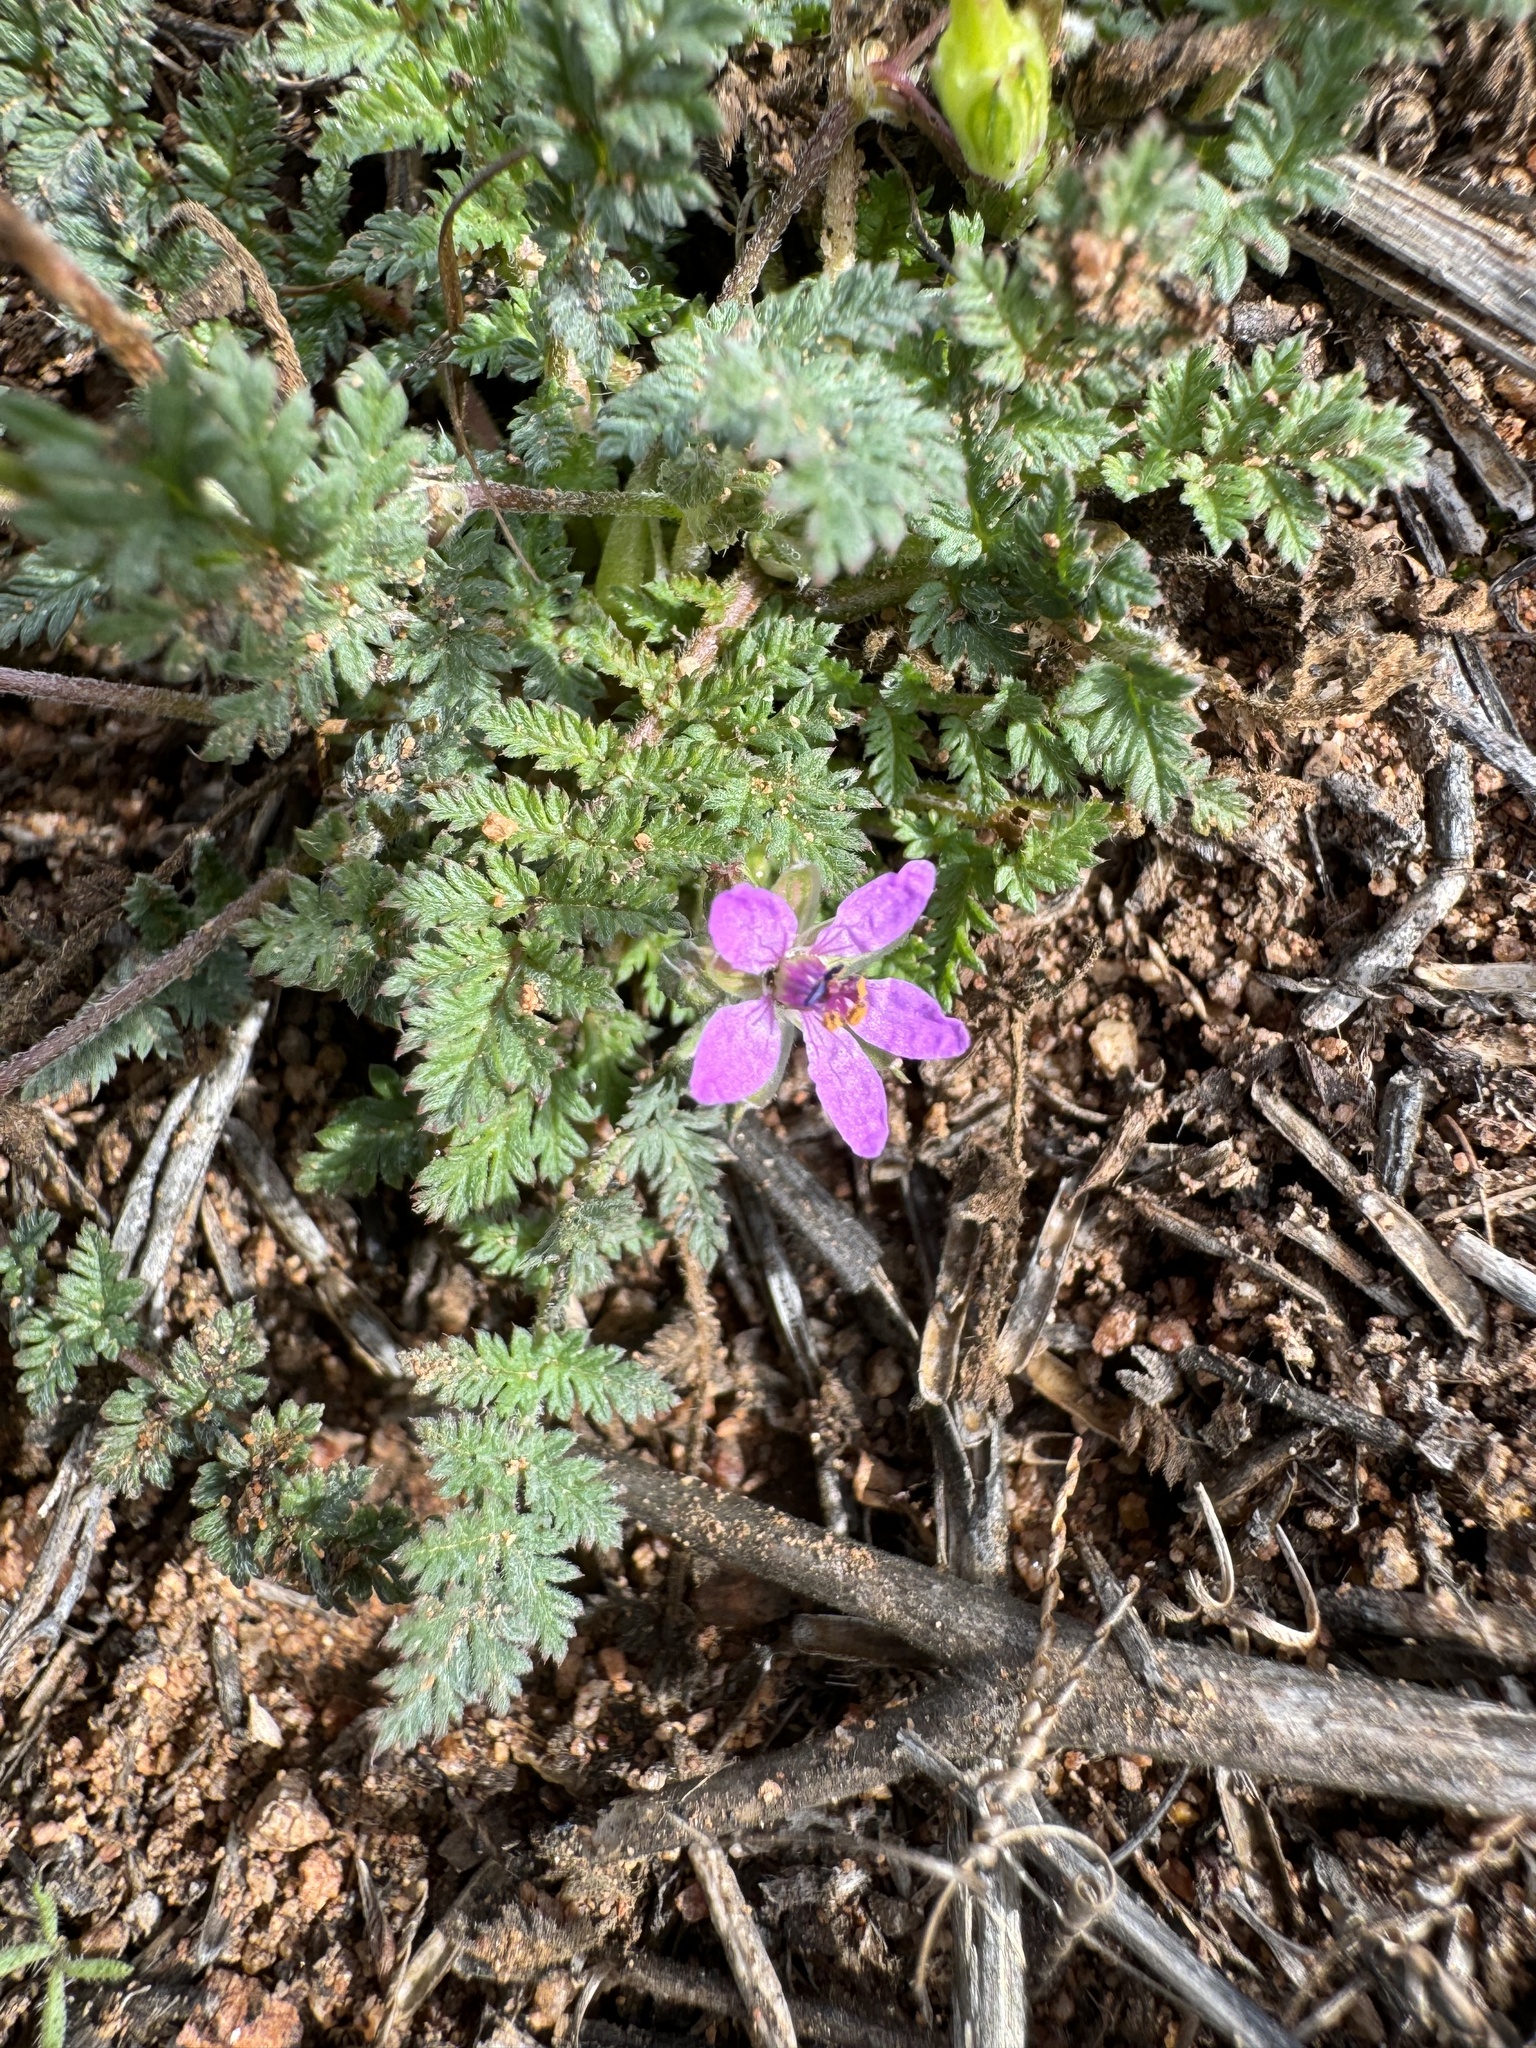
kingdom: Plantae
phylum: Tracheophyta
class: Magnoliopsida
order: Geraniales
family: Geraniaceae
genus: Erodium
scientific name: Erodium cicutarium
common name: Common stork's-bill
